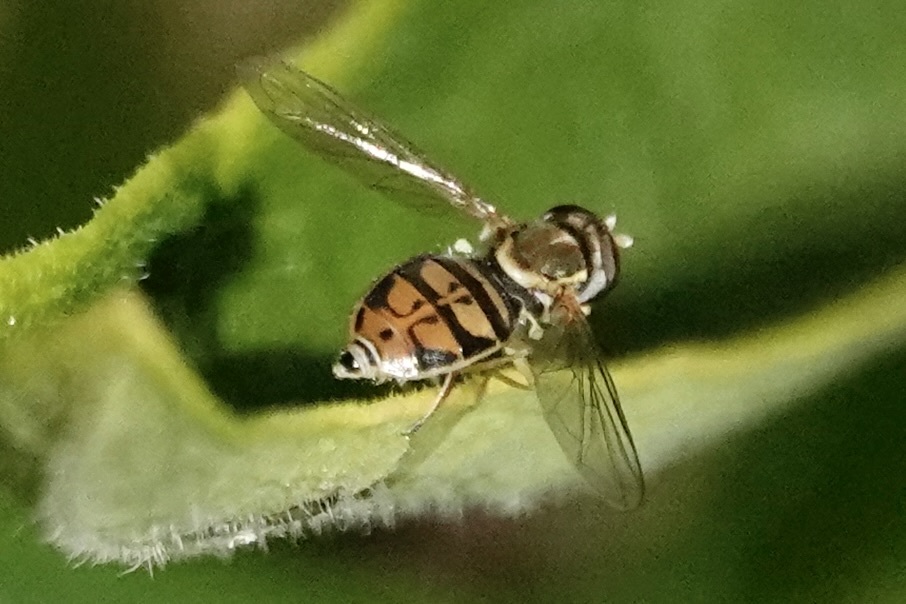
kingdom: Animalia
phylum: Arthropoda
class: Insecta
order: Diptera
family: Syrphidae
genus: Toxomerus
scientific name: Toxomerus marginatus
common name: Syrphid fly
